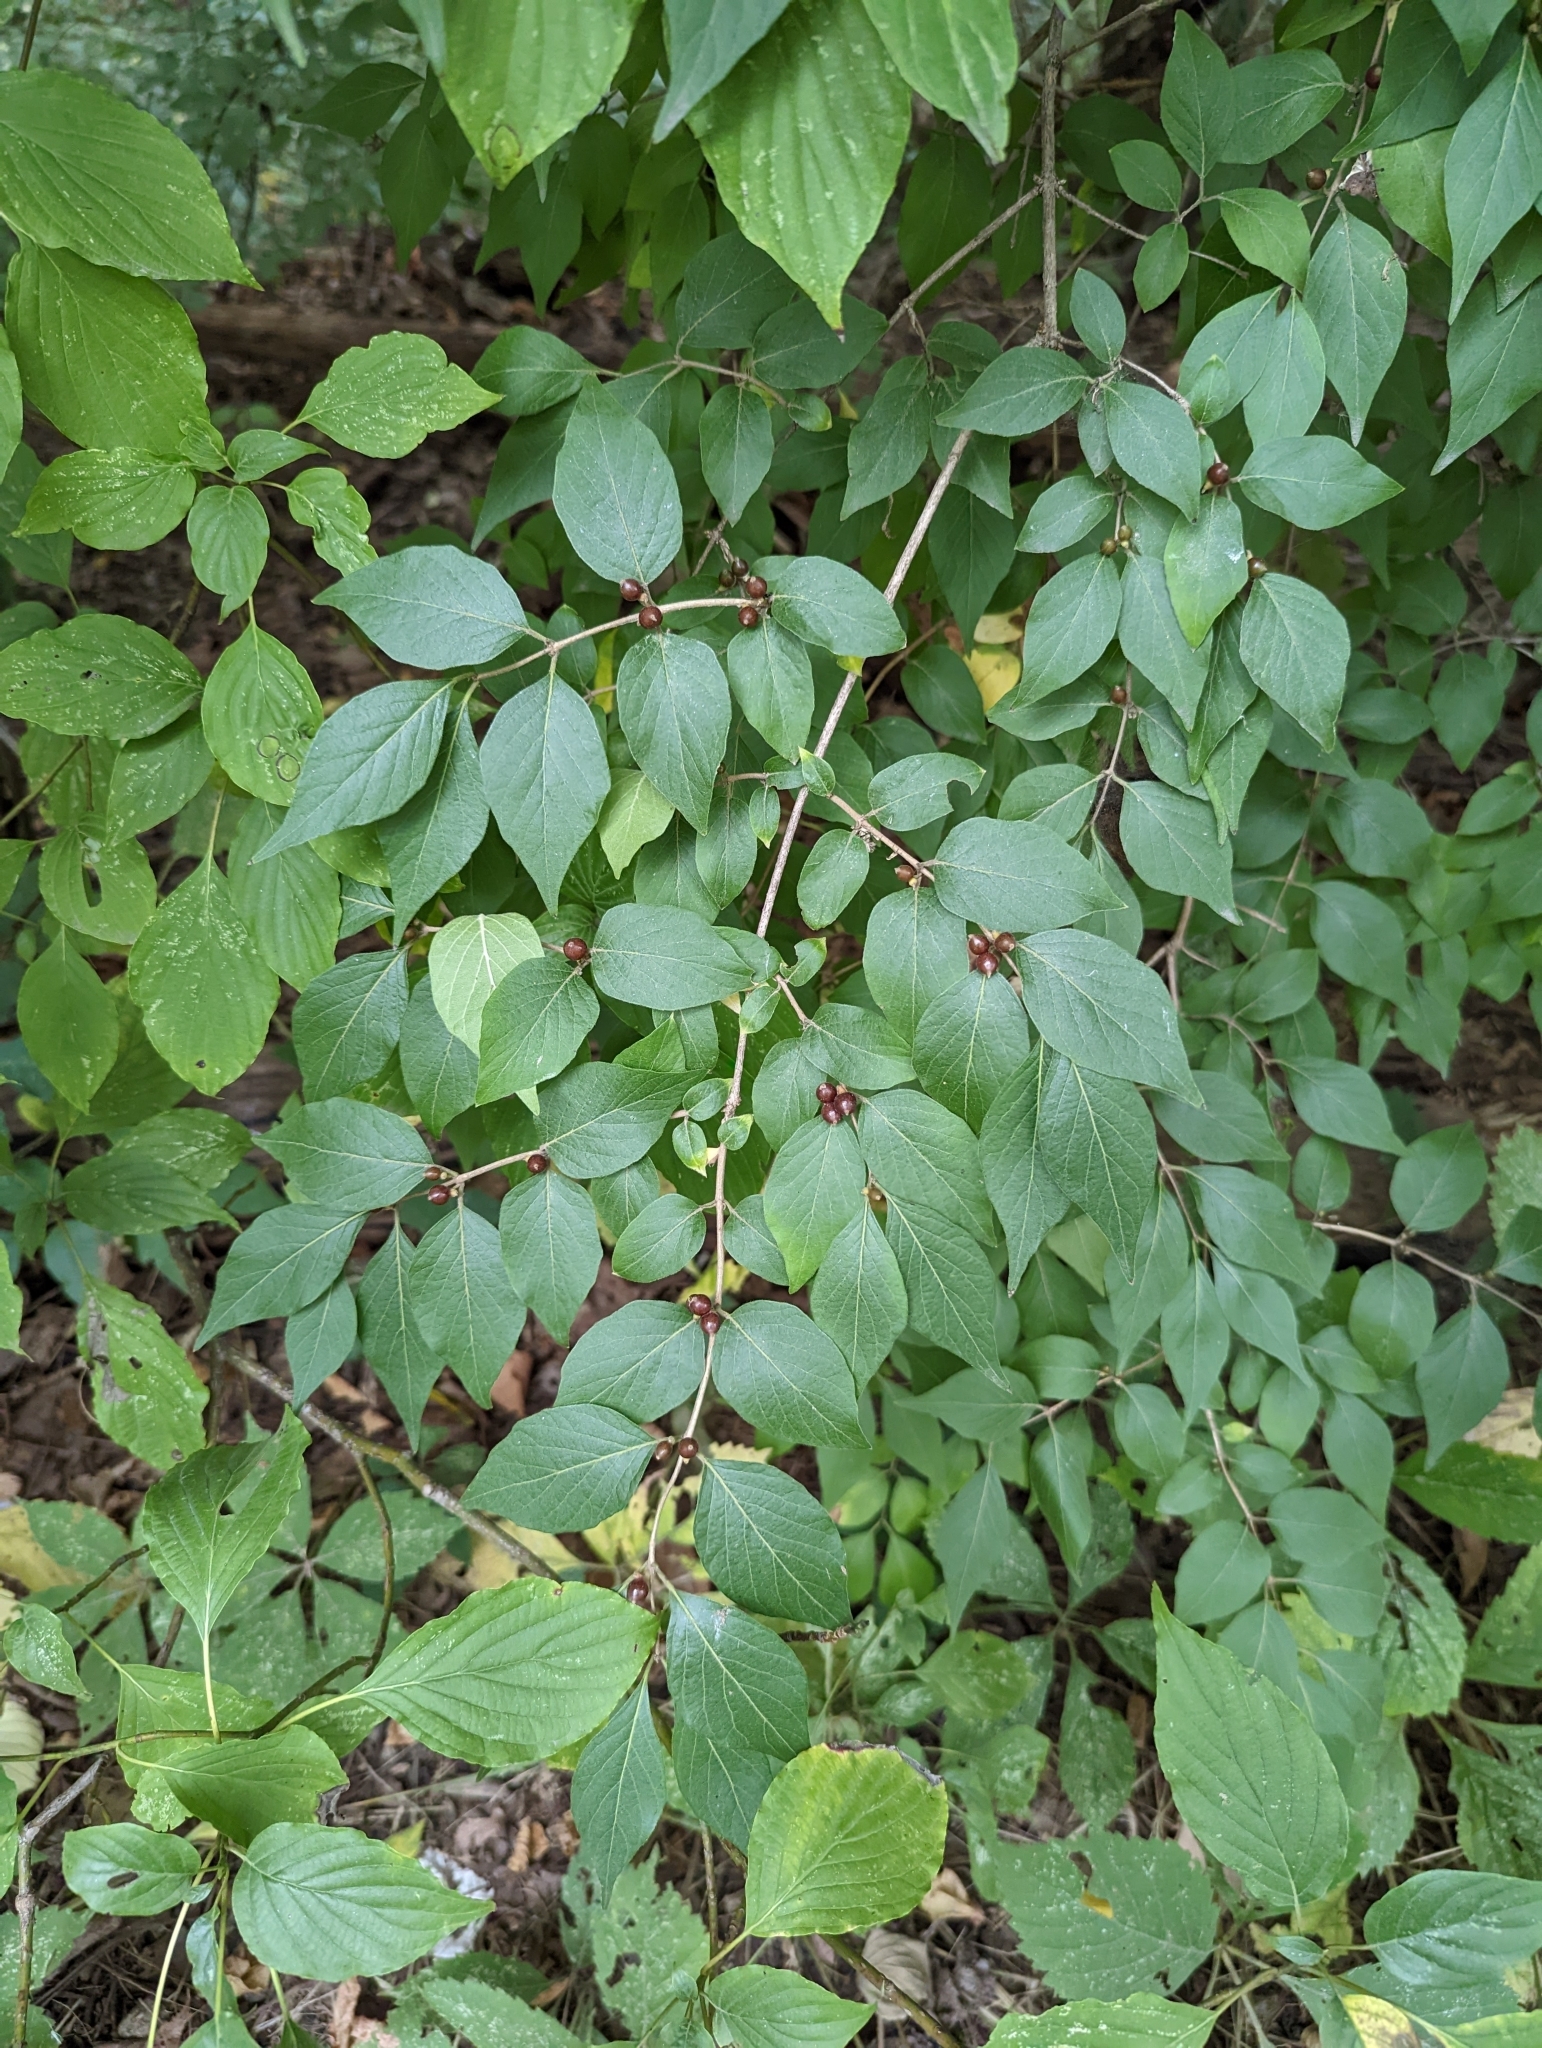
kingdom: Plantae
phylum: Tracheophyta
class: Magnoliopsida
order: Dipsacales
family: Caprifoliaceae
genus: Lonicera
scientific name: Lonicera maackii
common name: Amur honeysuckle
